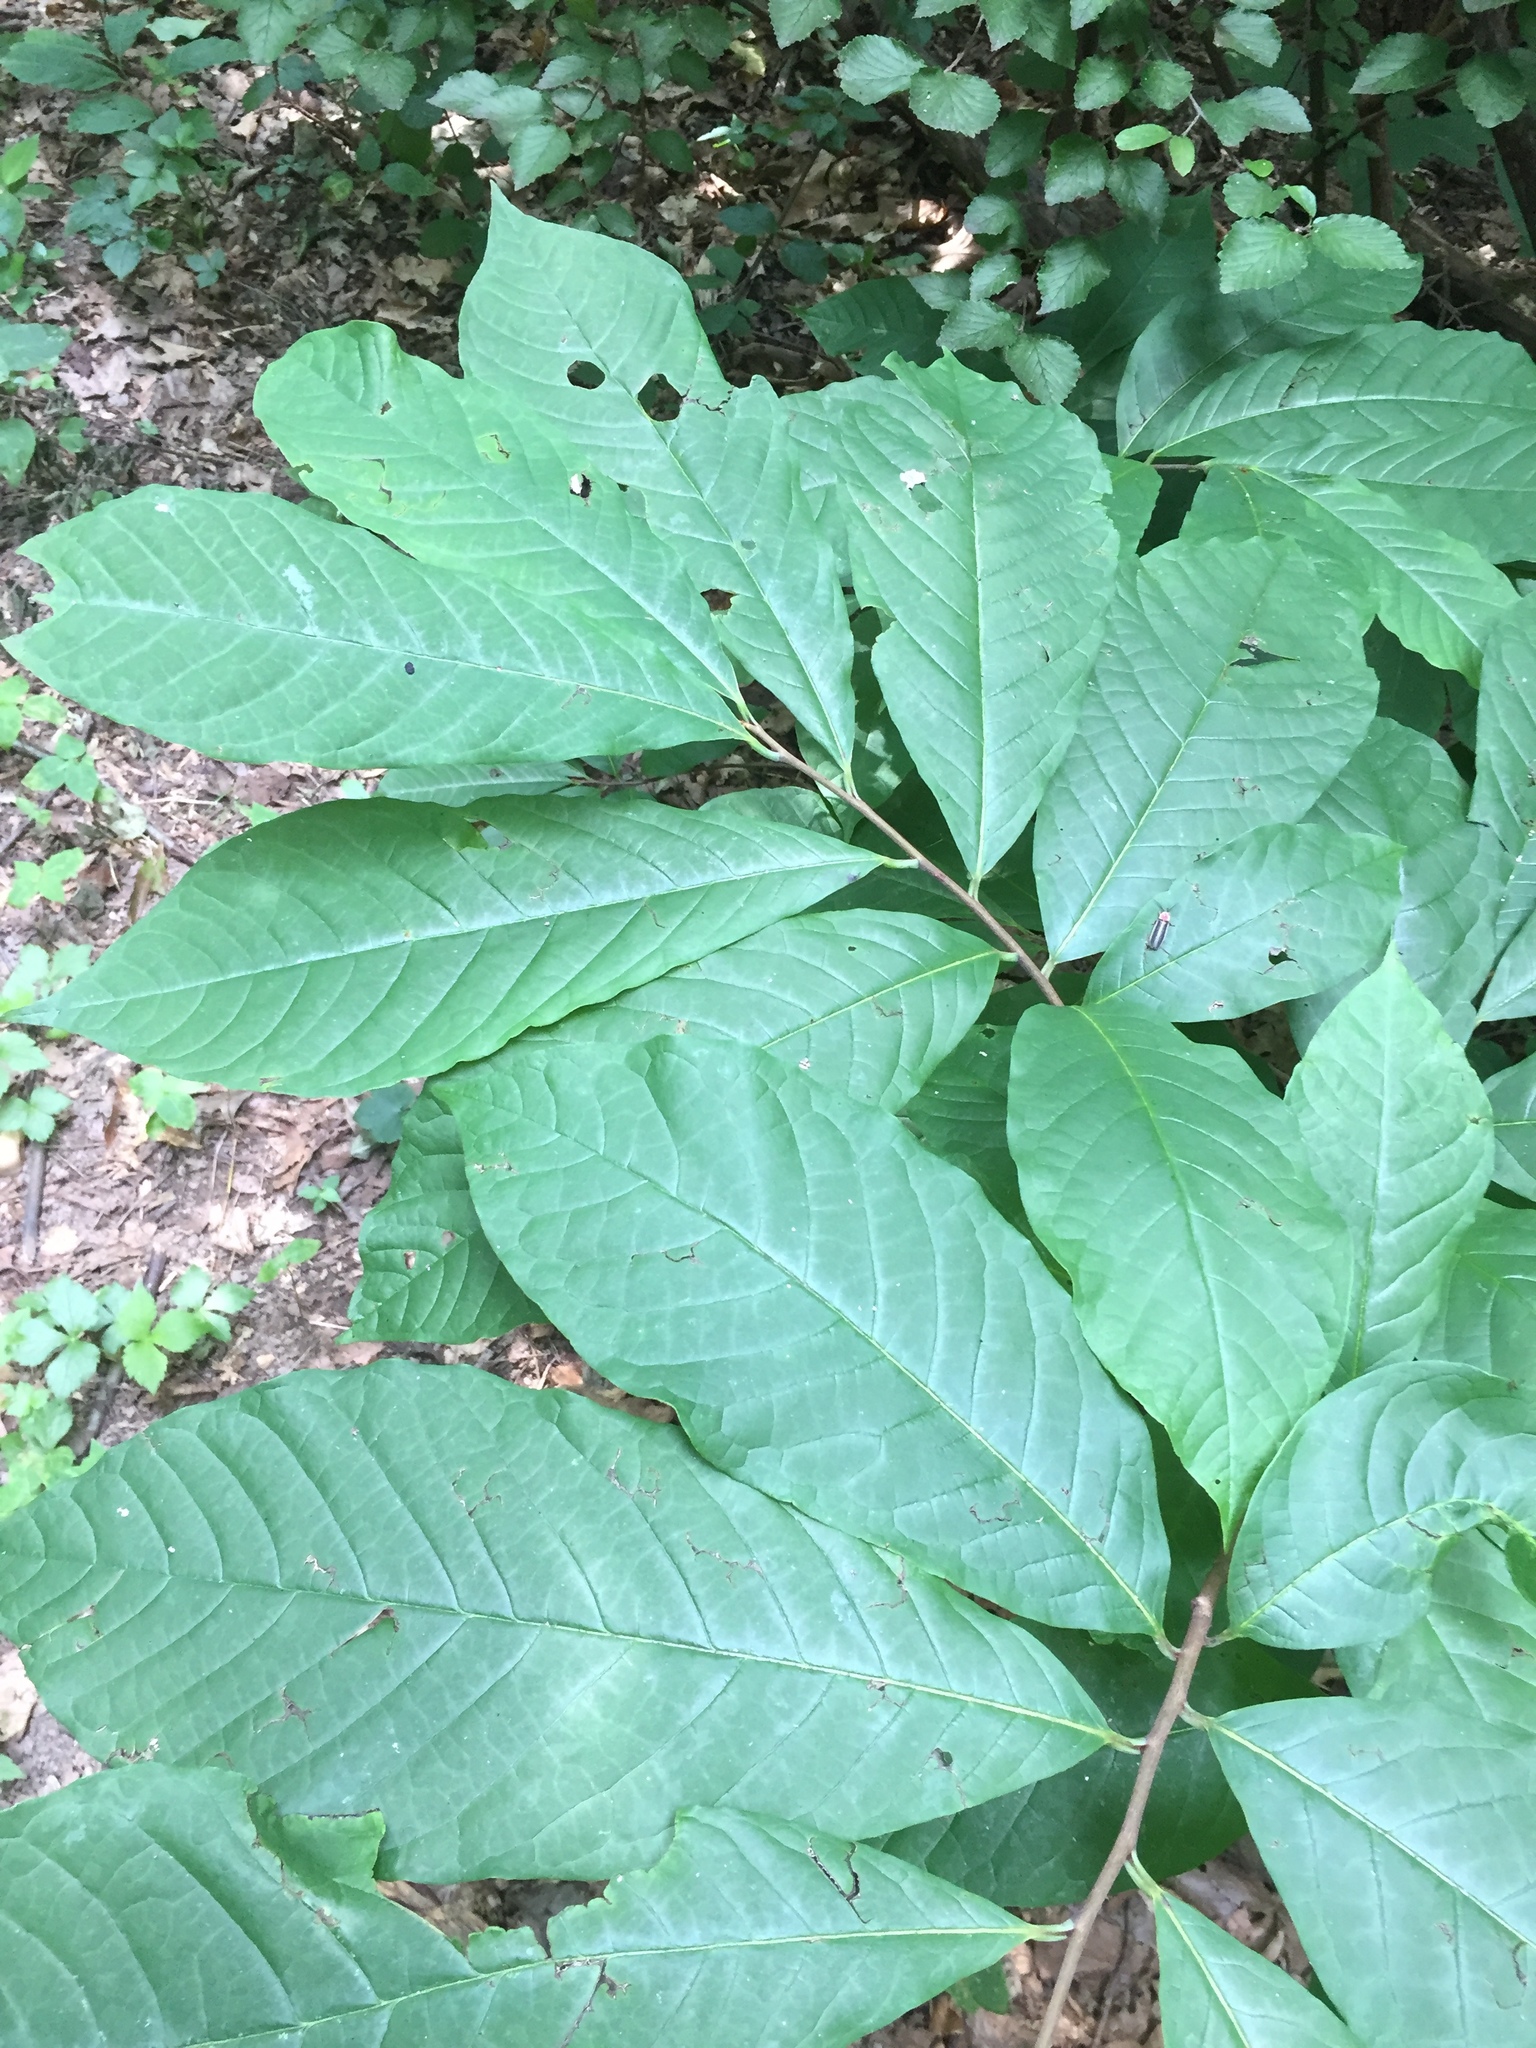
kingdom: Plantae
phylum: Tracheophyta
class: Magnoliopsida
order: Magnoliales
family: Annonaceae
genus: Asimina
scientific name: Asimina triloba
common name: Dog-banana
